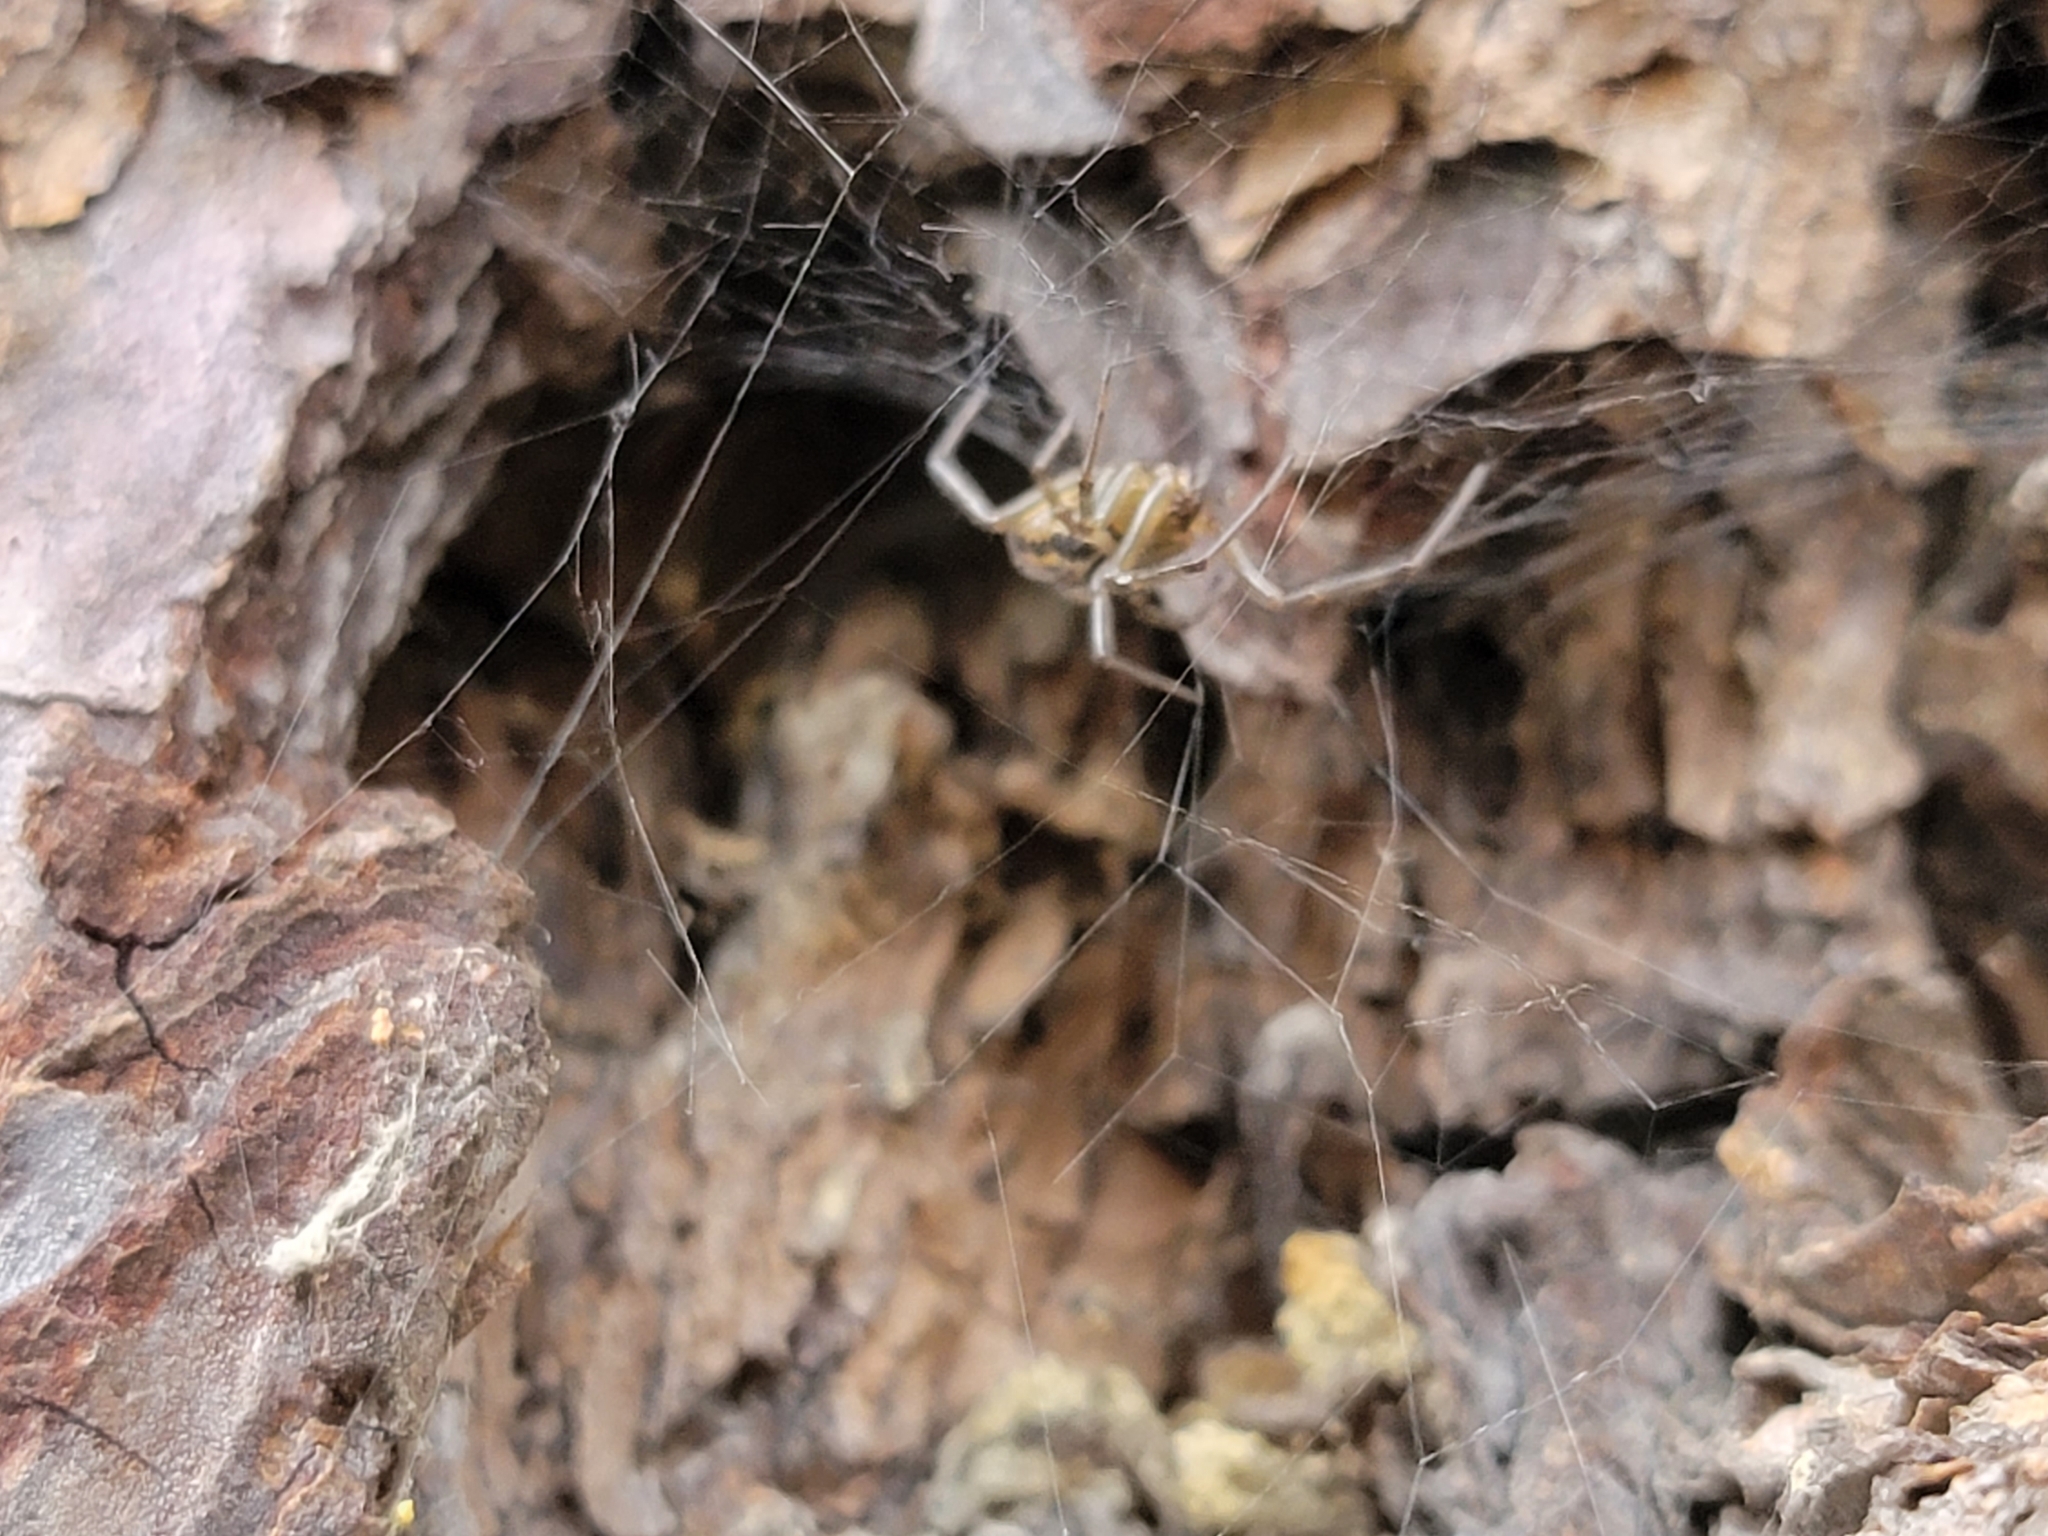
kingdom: Animalia
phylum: Arthropoda
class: Arachnida
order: Araneae
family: Theridiidae
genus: Steatoda
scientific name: Steatoda nobilis
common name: Cobweb weaver
